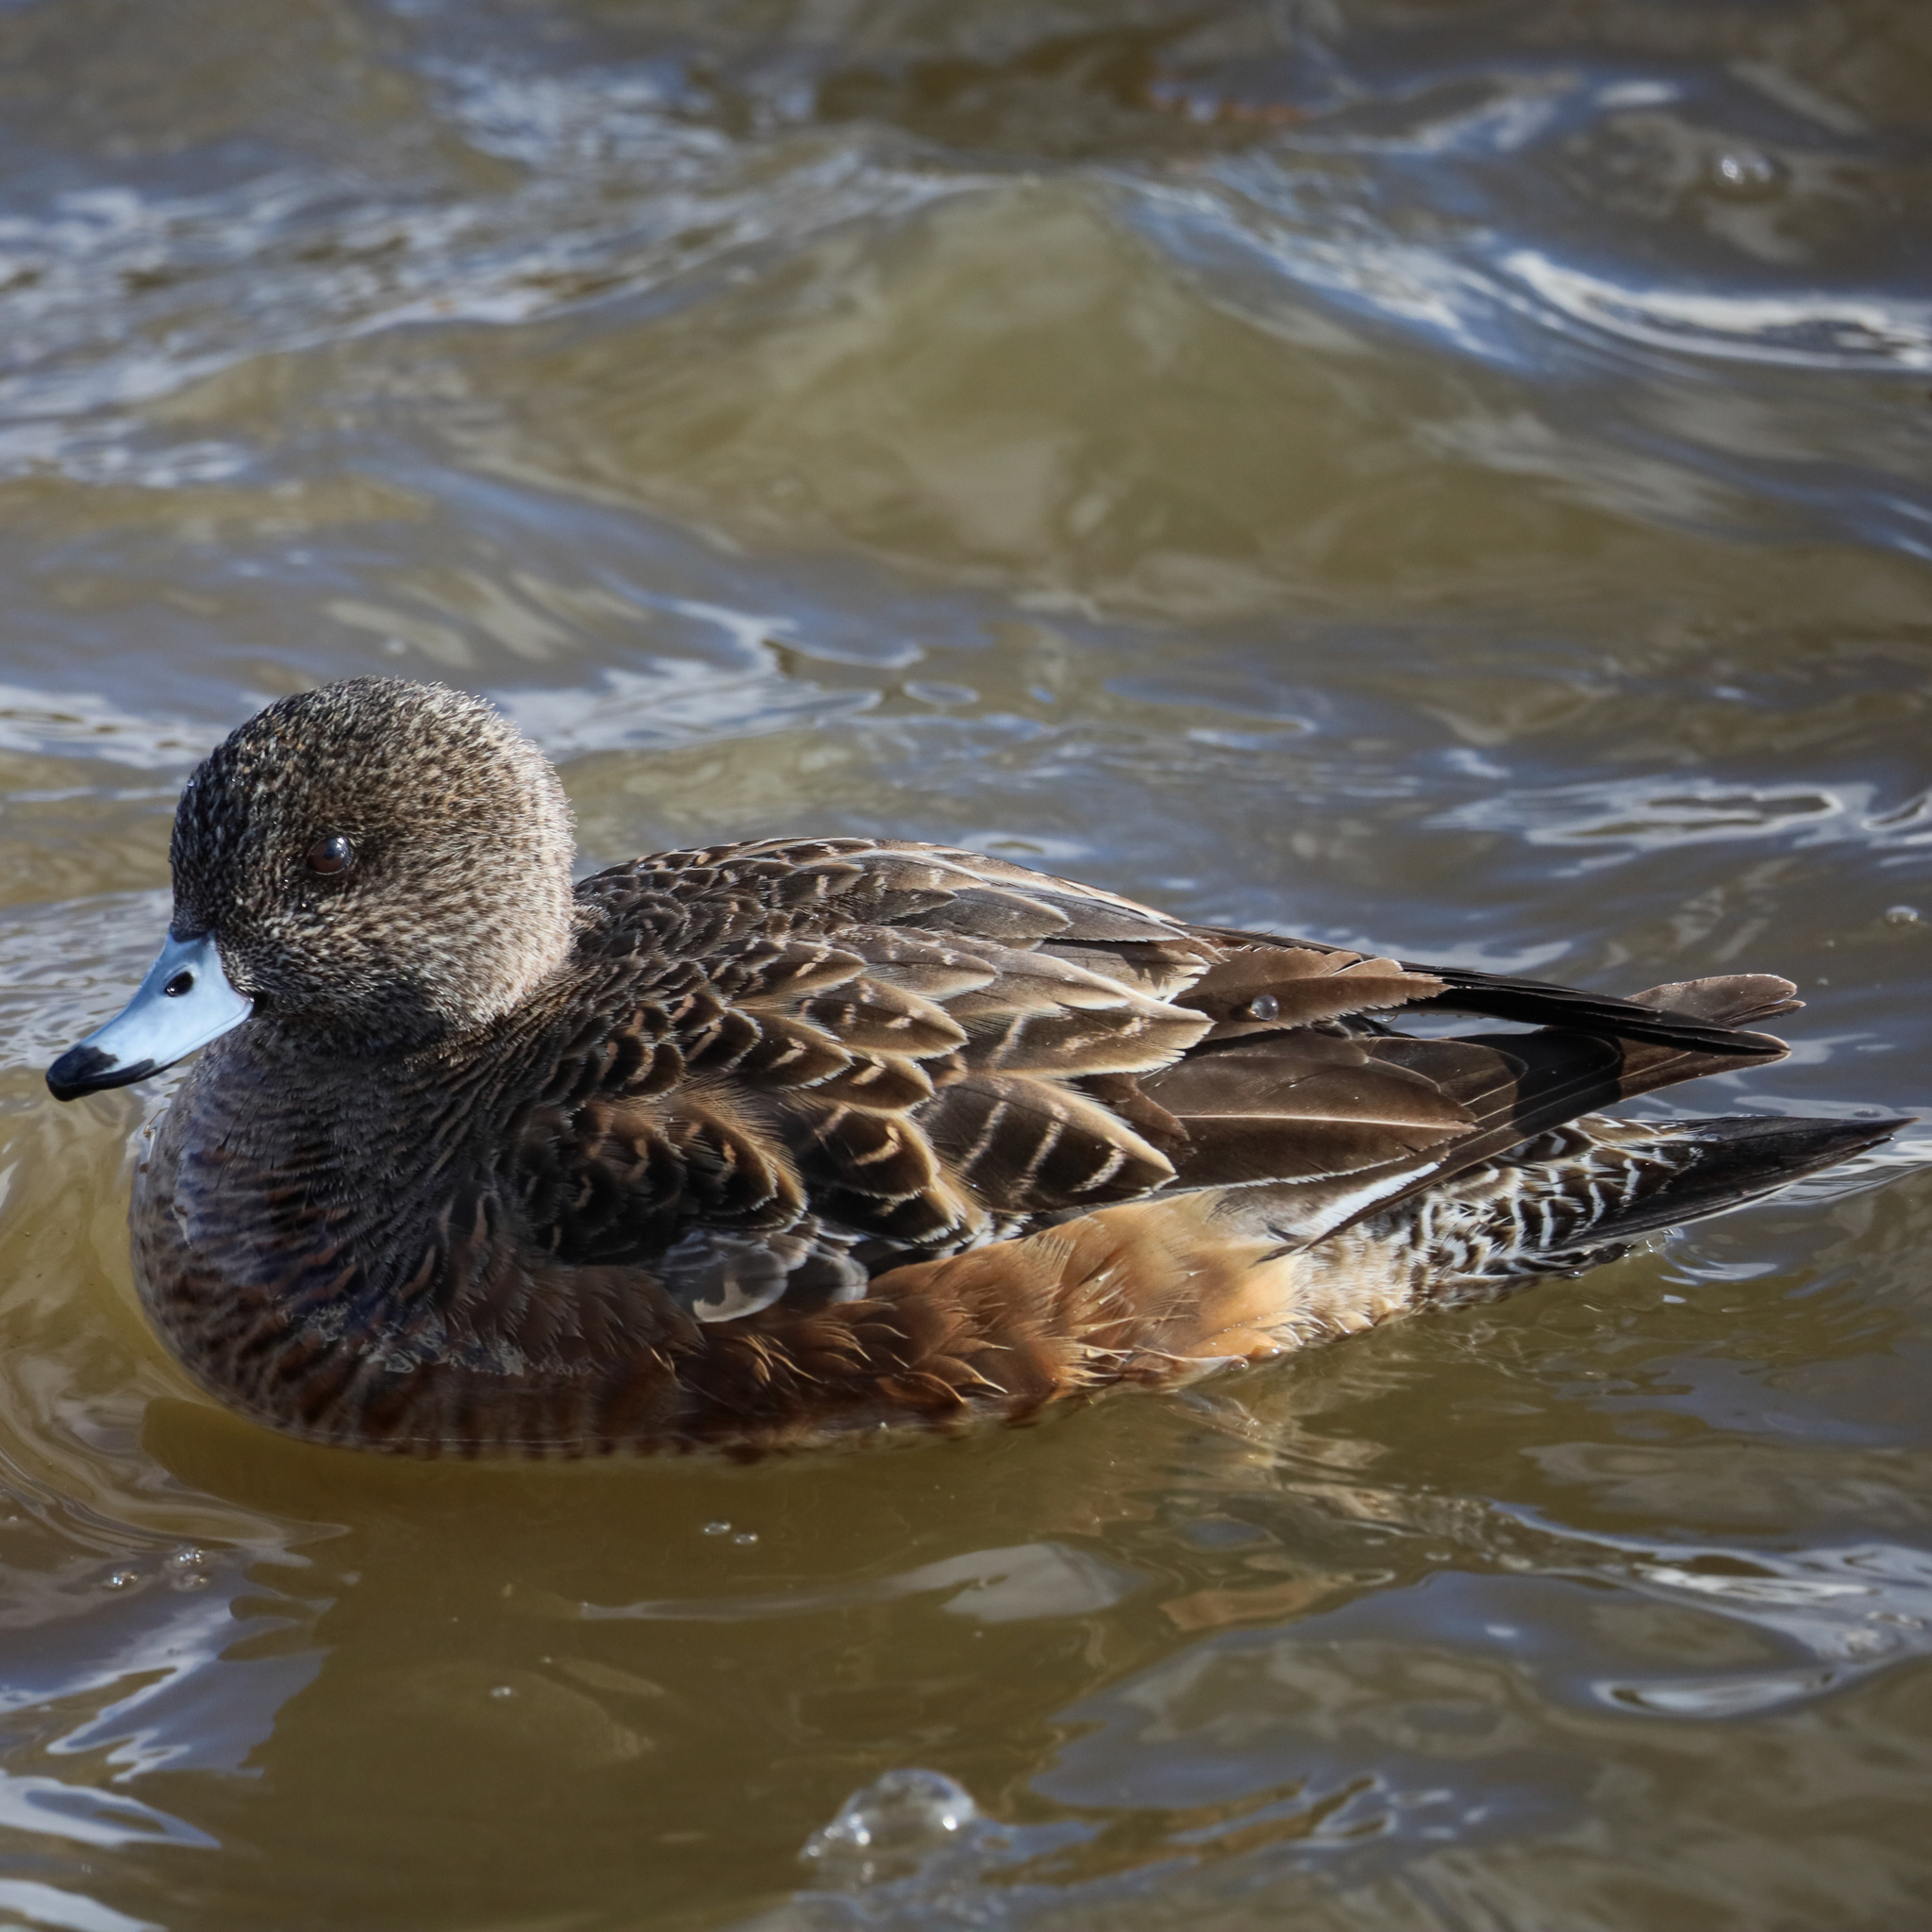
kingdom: Animalia
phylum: Chordata
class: Aves
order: Anseriformes
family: Anatidae
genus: Mareca
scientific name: Mareca americana
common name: American wigeon
